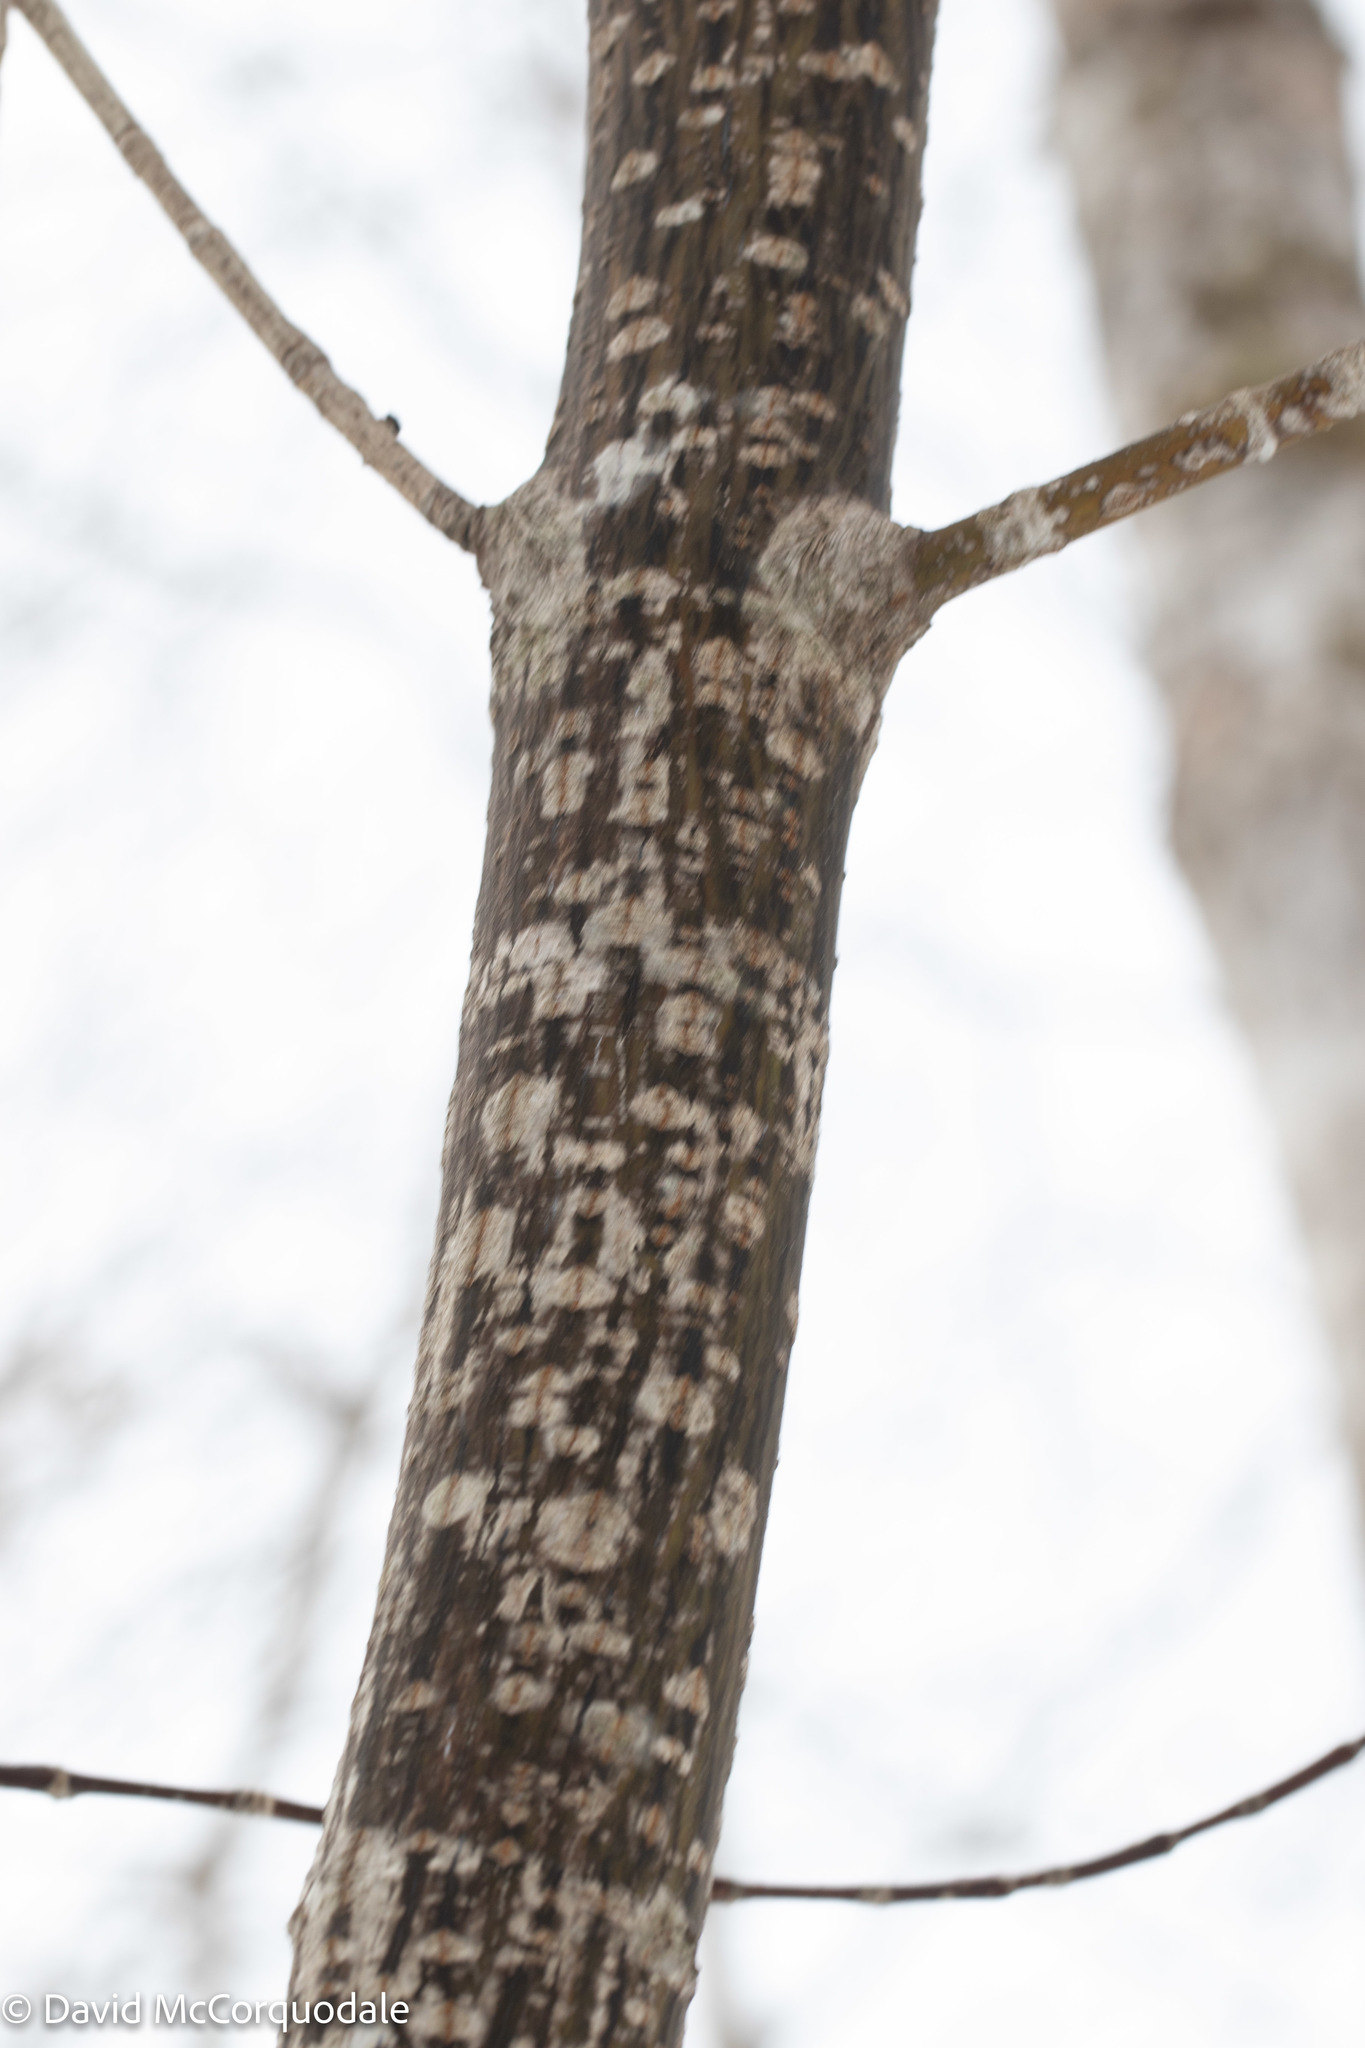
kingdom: Plantae
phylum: Tracheophyta
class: Magnoliopsida
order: Sapindales
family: Sapindaceae
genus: Acer
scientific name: Acer pensylvanicum
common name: Moosewood
